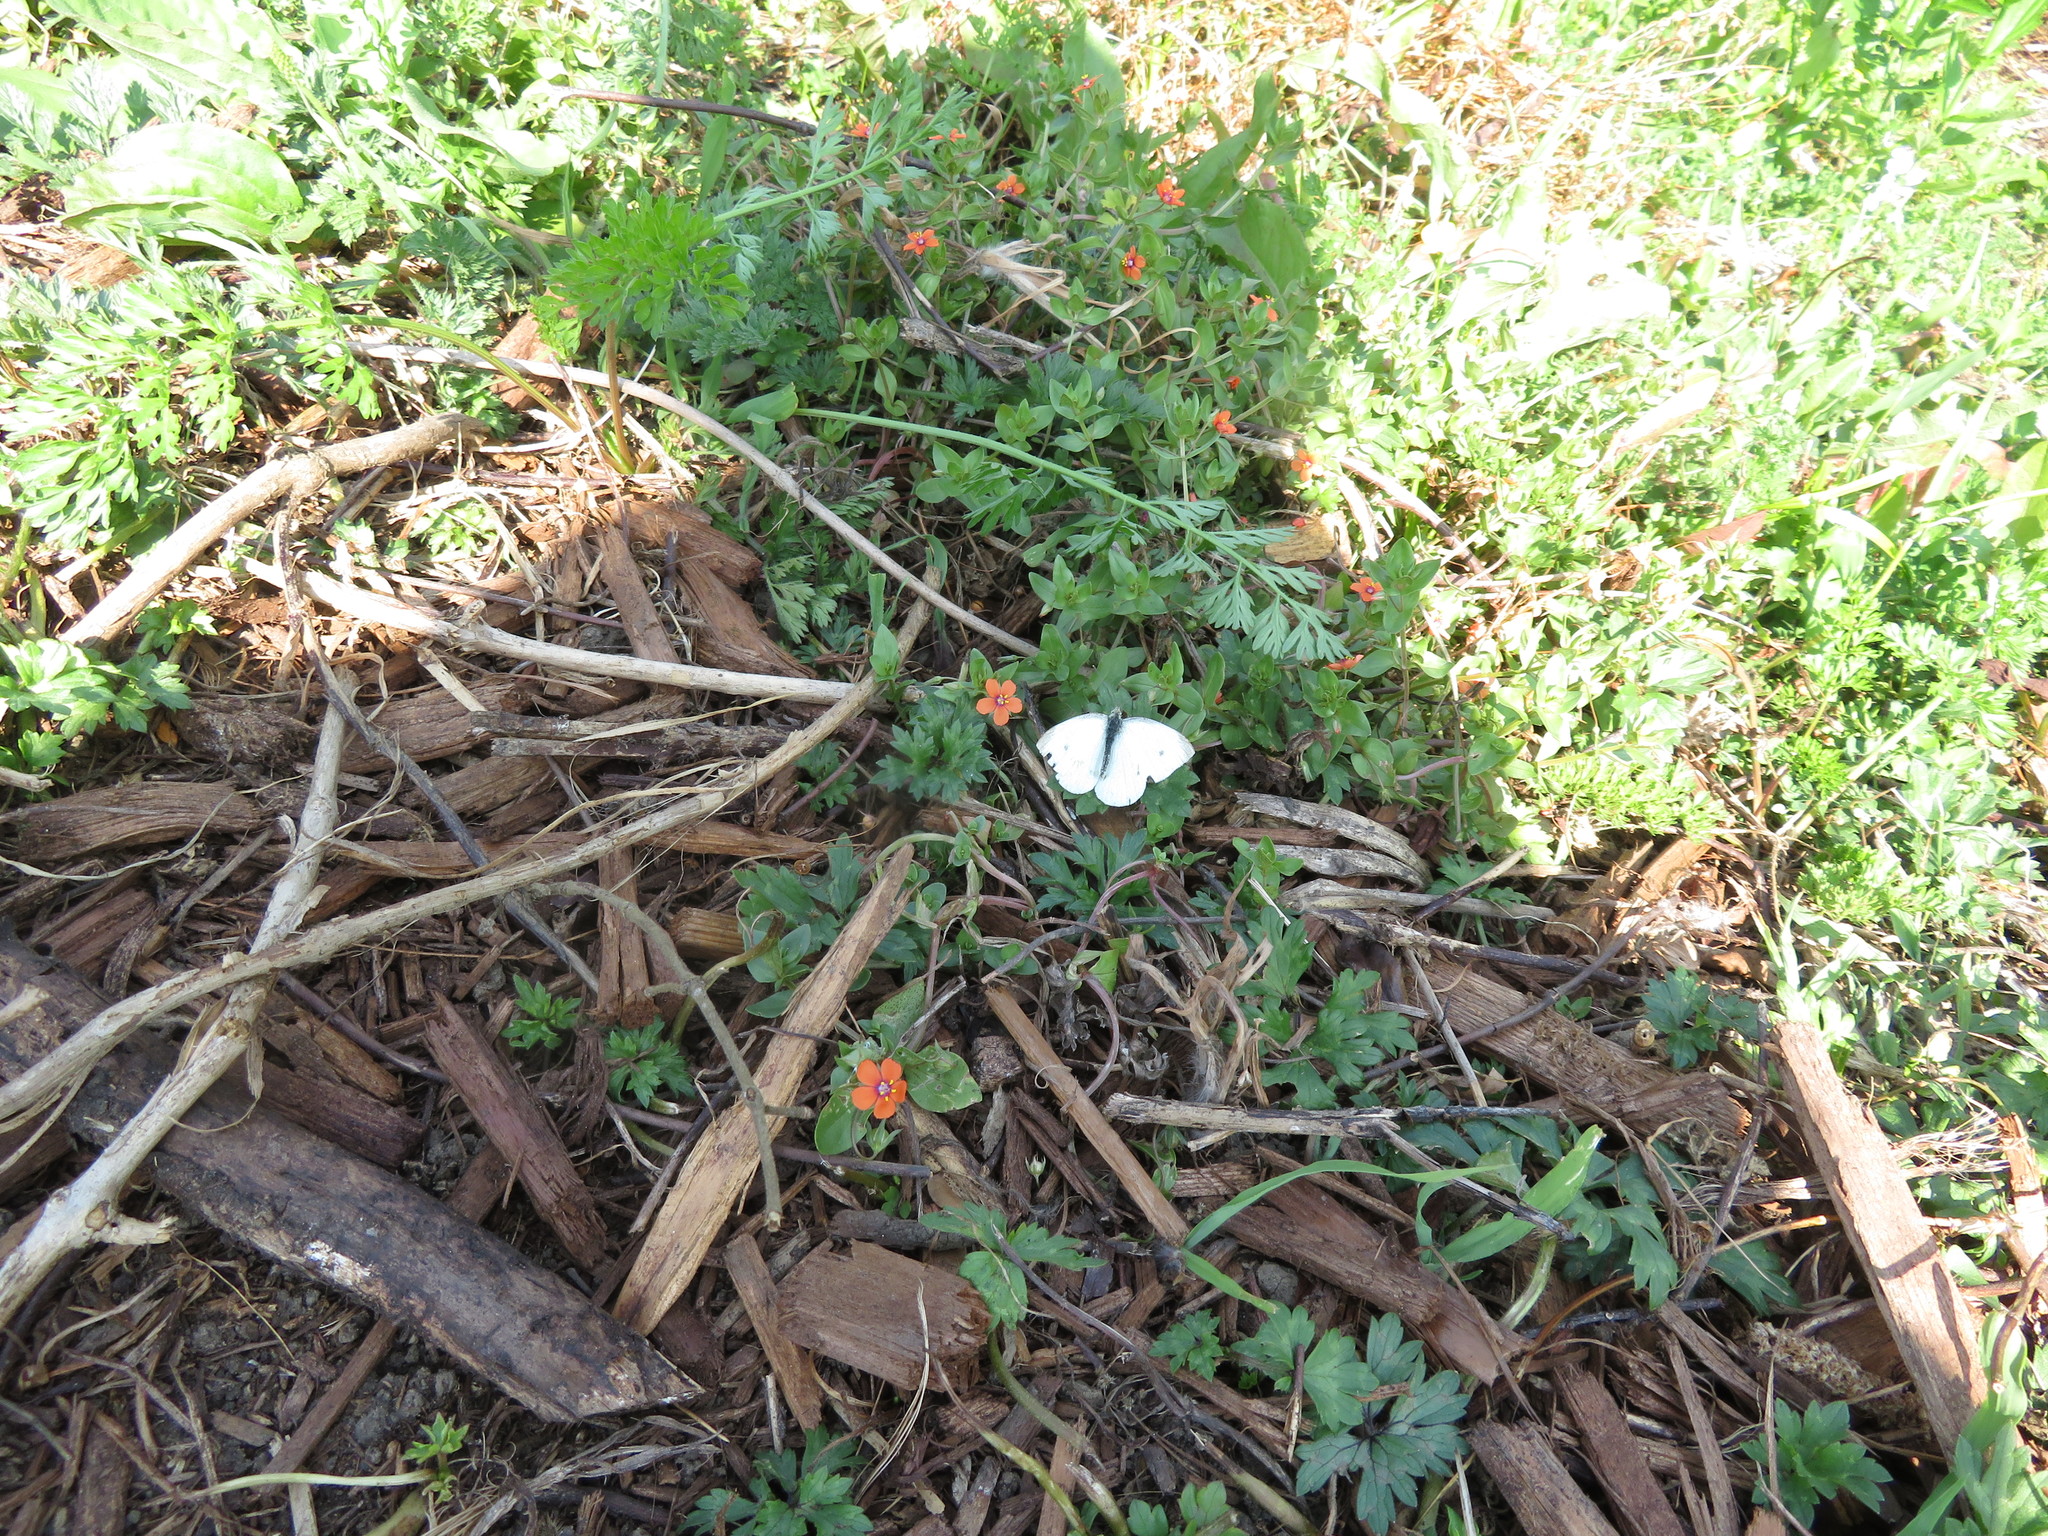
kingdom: Animalia
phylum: Arthropoda
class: Insecta
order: Lepidoptera
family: Pieridae
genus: Pieris
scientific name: Pieris rapae
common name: Small white
